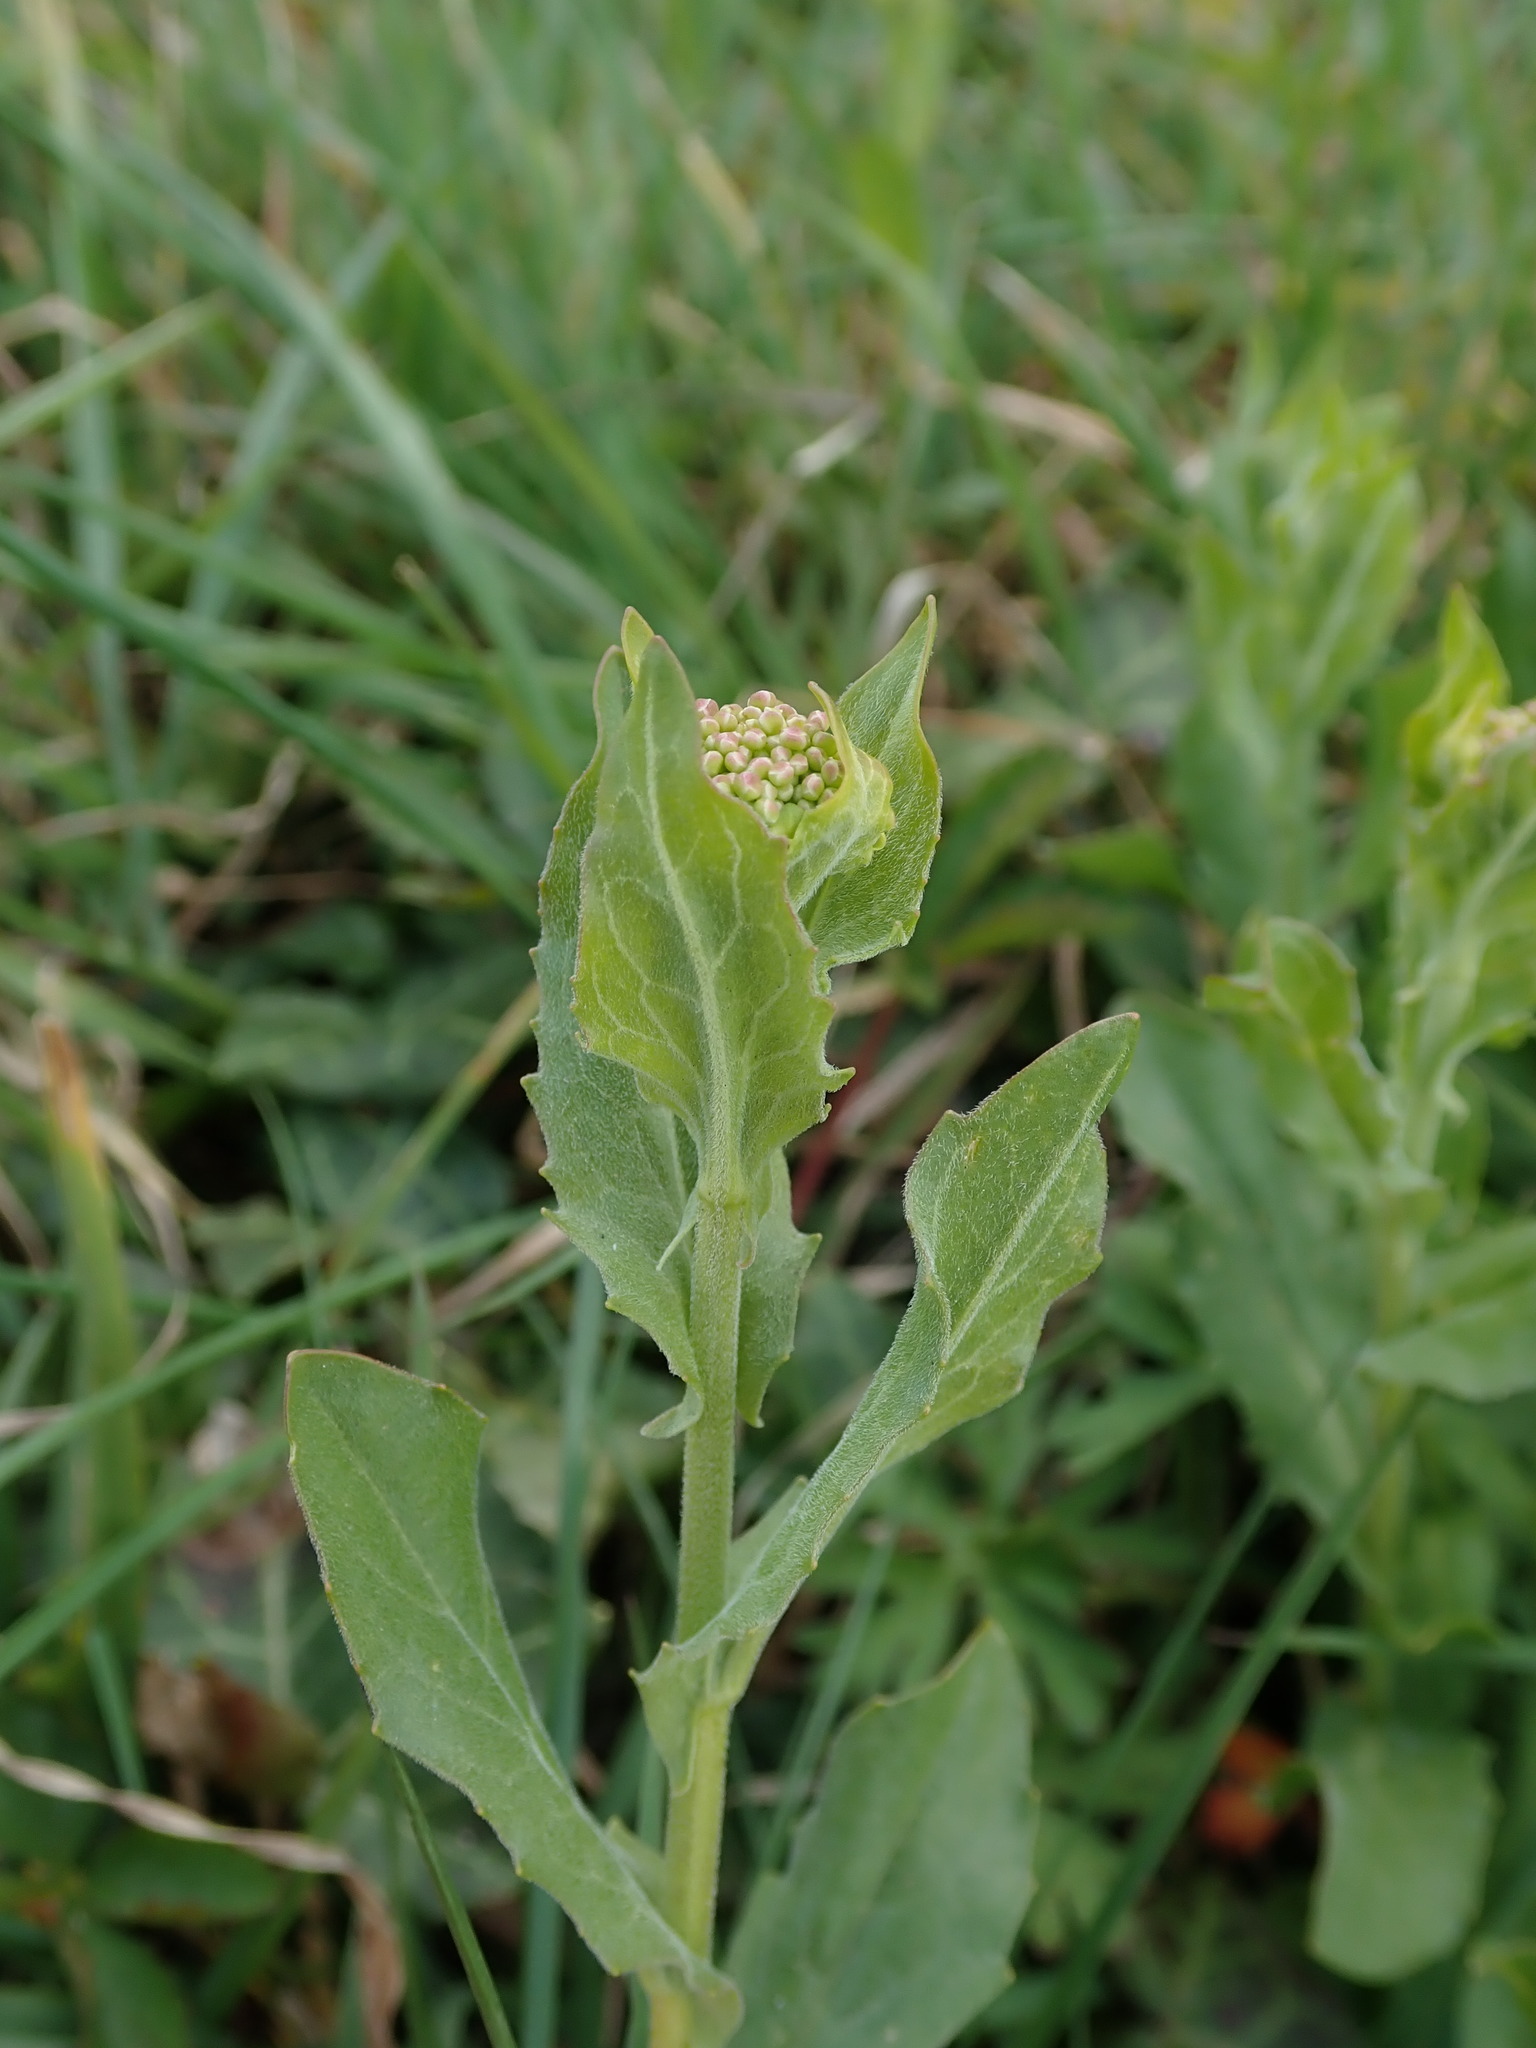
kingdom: Plantae
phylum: Tracheophyta
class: Magnoliopsida
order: Brassicales
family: Brassicaceae
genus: Lepidium
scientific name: Lepidium draba
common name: Hoary cress
